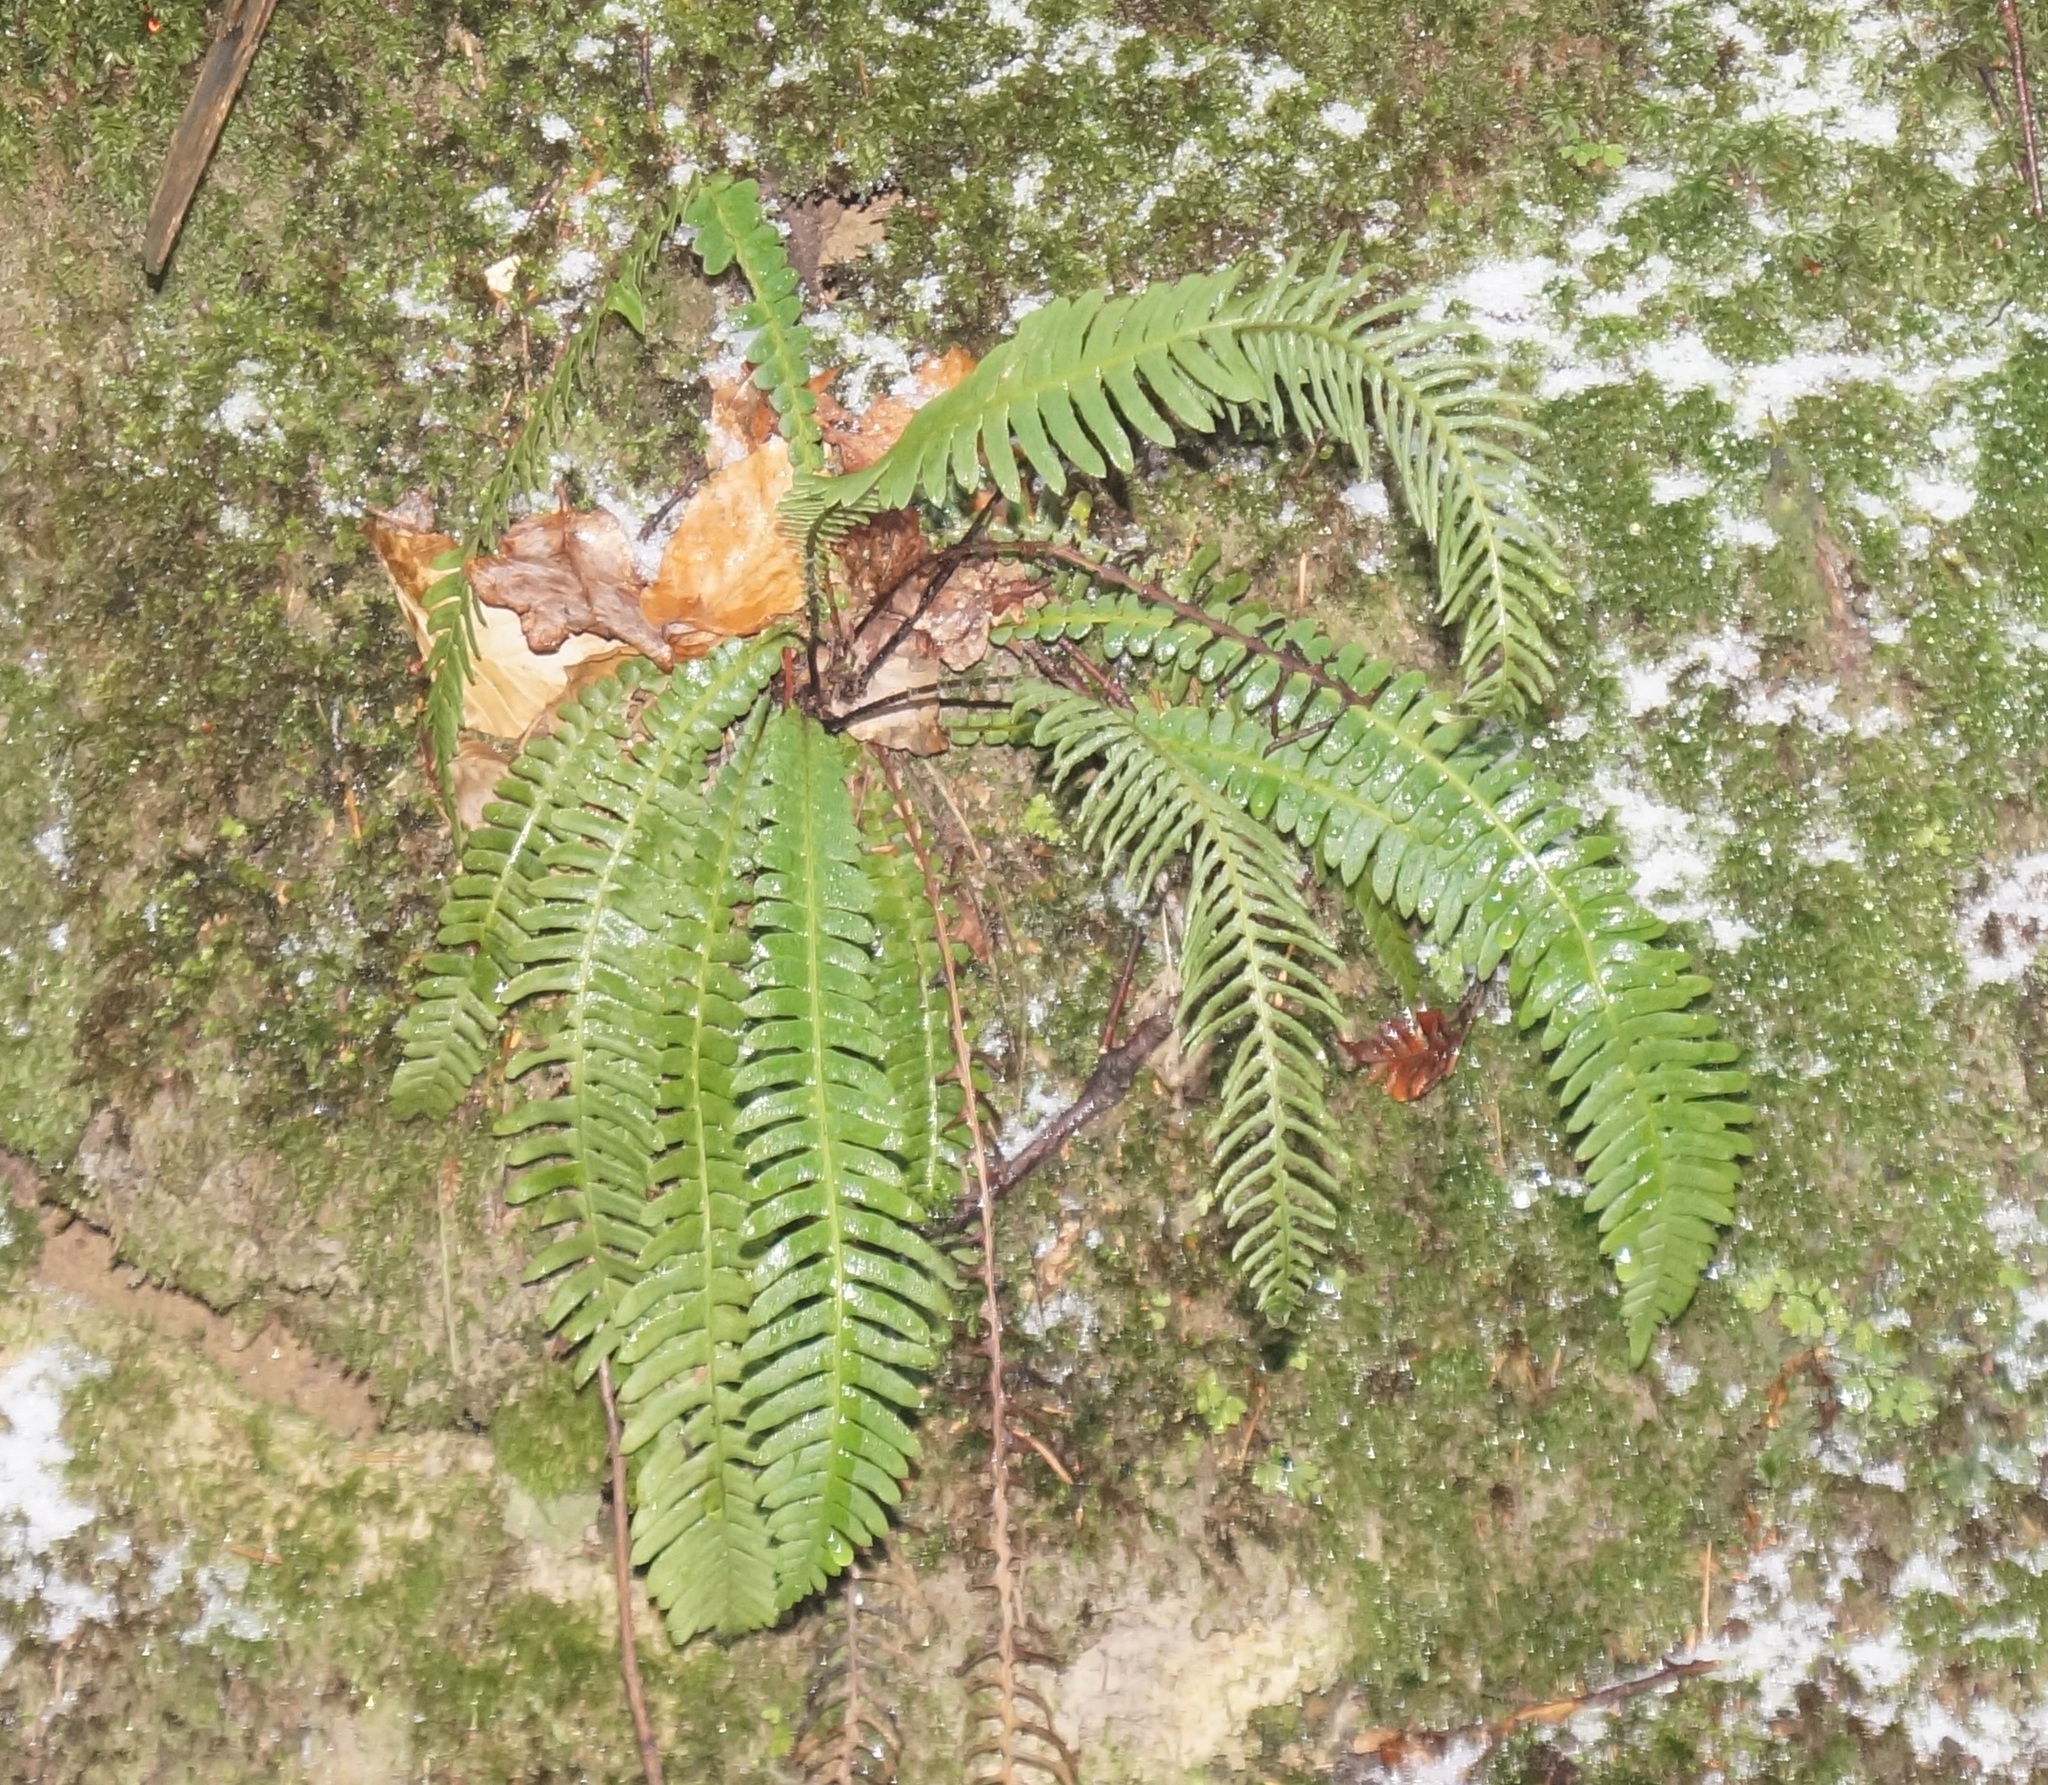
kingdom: Plantae
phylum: Tracheophyta
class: Polypodiopsida
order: Polypodiales
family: Blechnaceae
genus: Struthiopteris
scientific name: Struthiopteris spicant
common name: Deer fern
